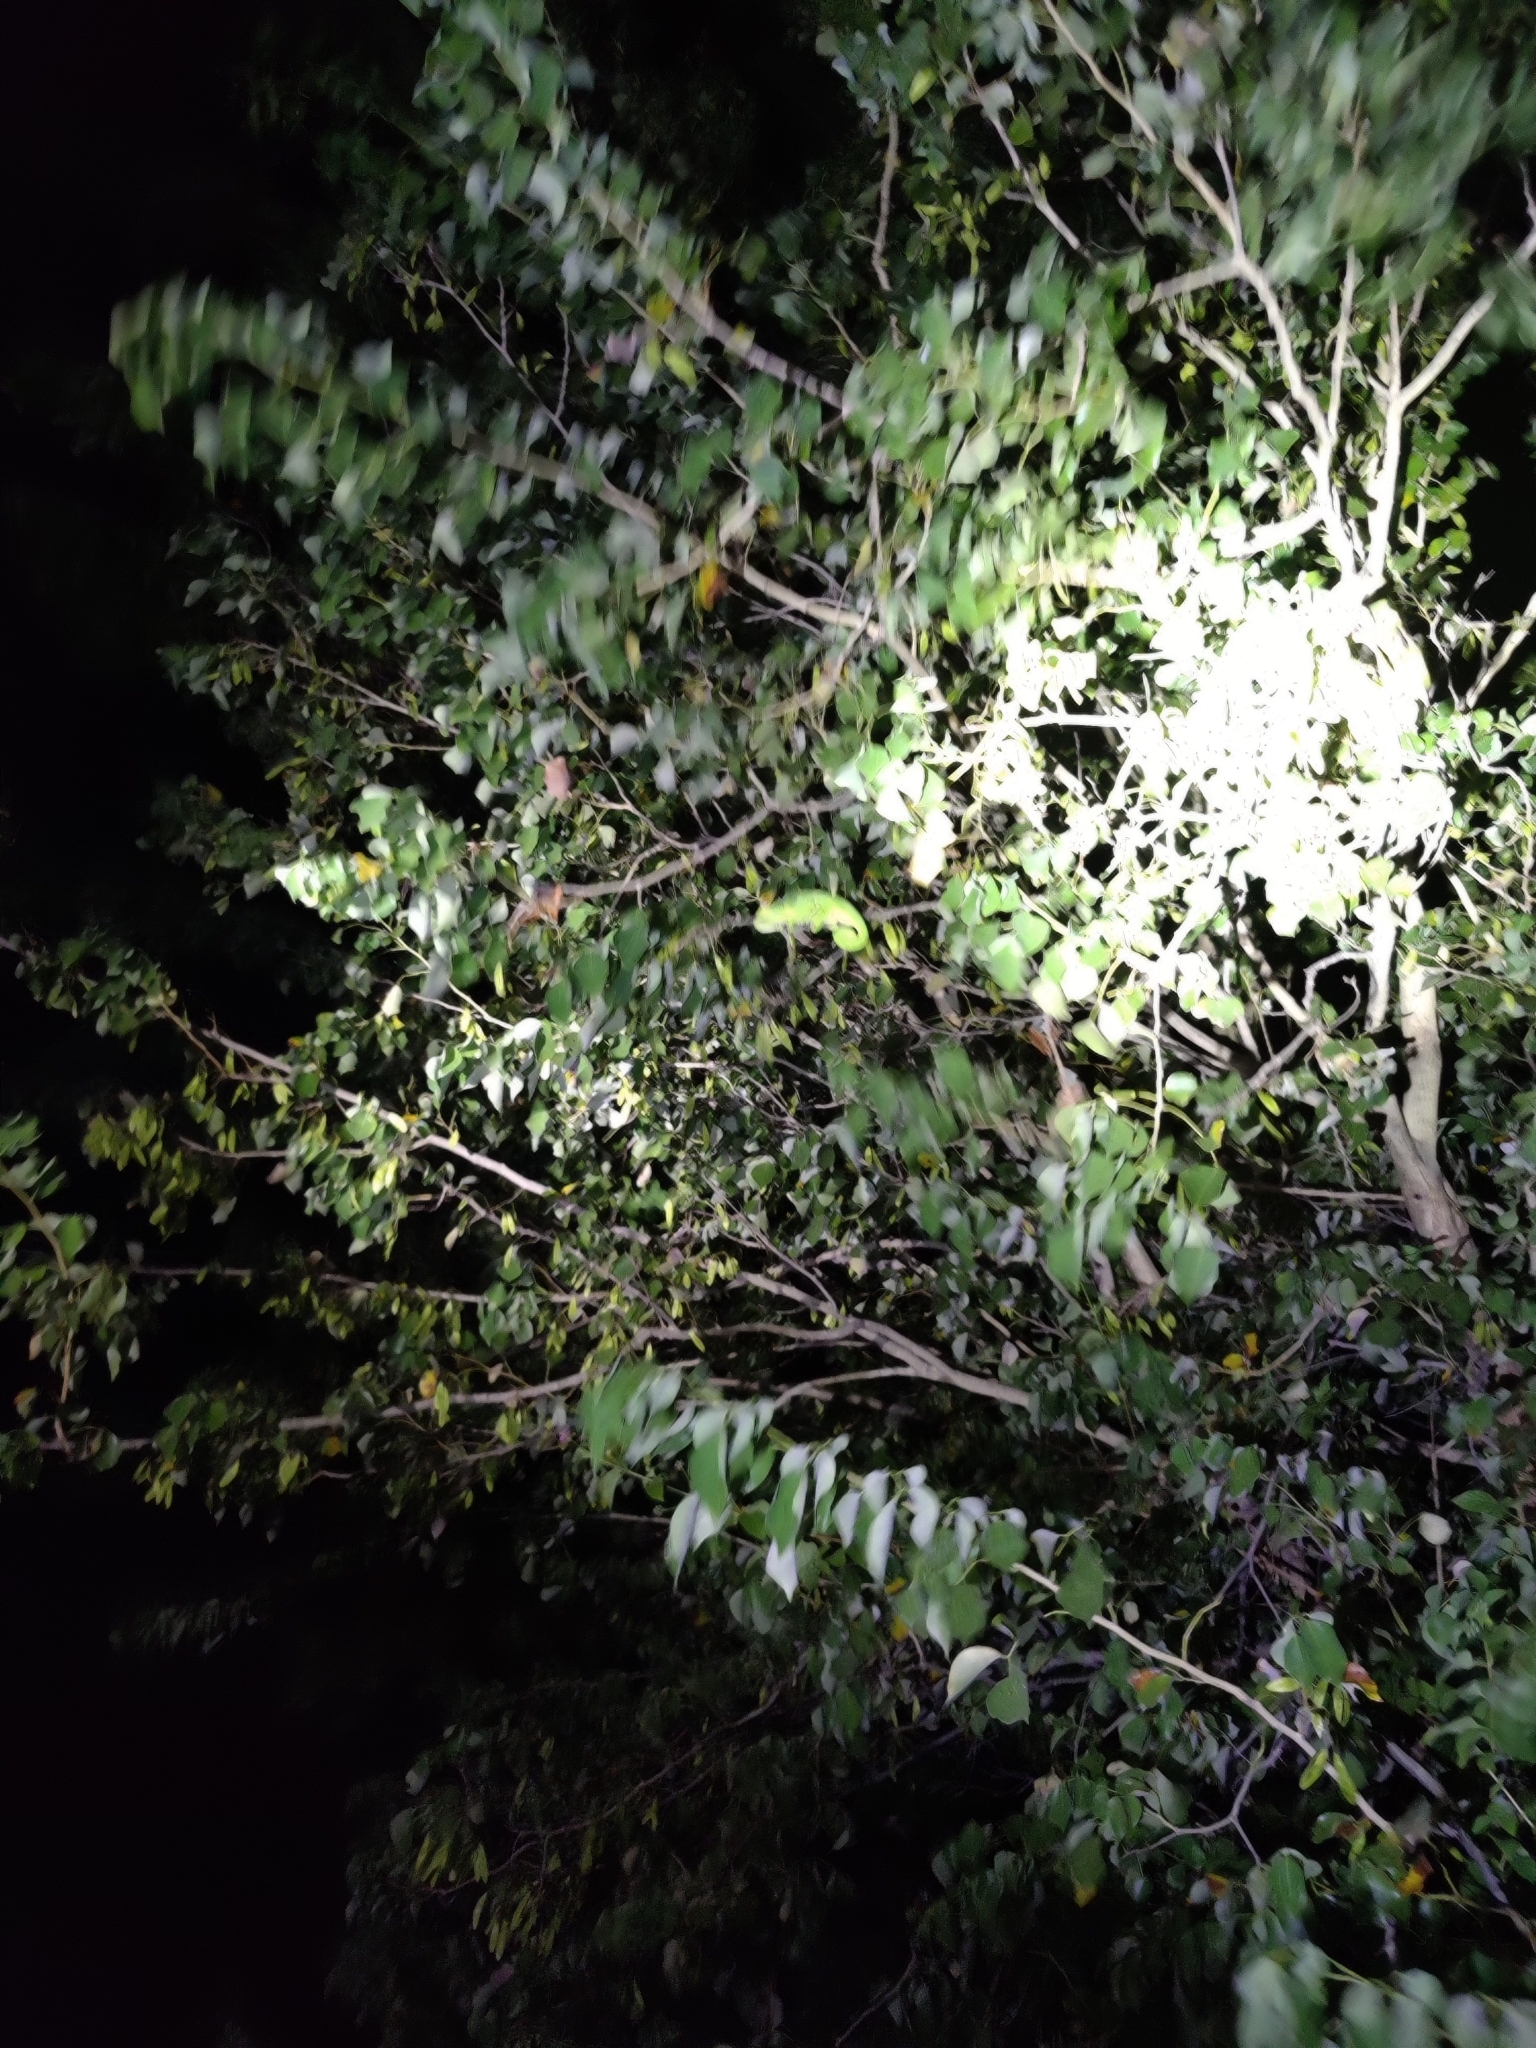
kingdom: Animalia
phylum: Chordata
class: Squamata
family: Chamaeleonidae
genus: Chamaeleo
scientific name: Chamaeleo zeylanicus
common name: Indian chameleon
